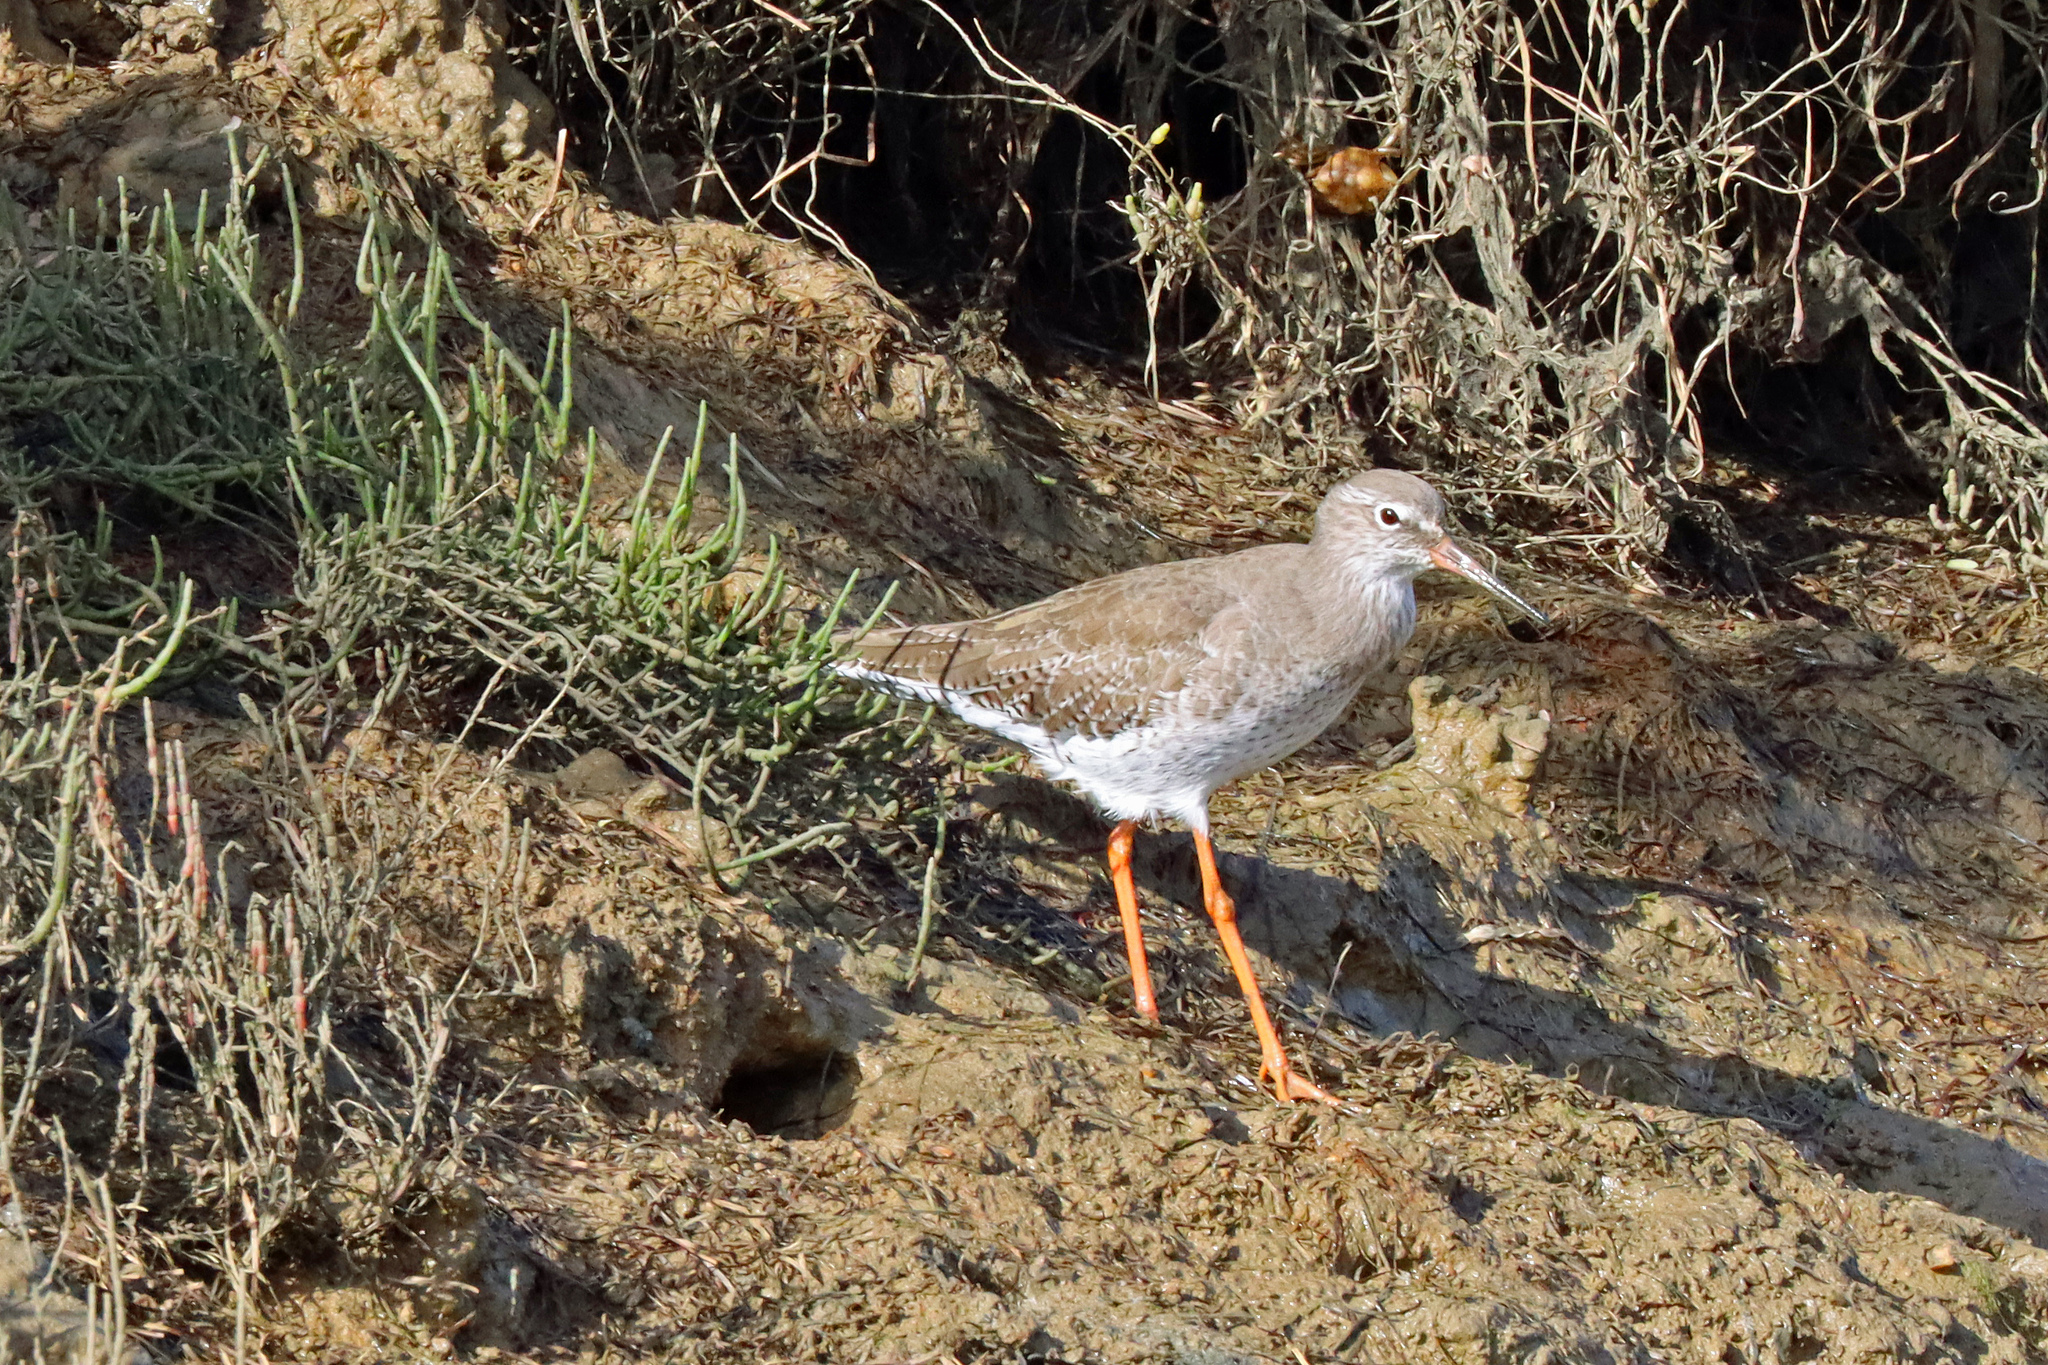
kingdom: Animalia
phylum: Chordata
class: Aves
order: Charadriiformes
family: Scolopacidae
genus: Tringa
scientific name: Tringa totanus
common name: Common redshank
